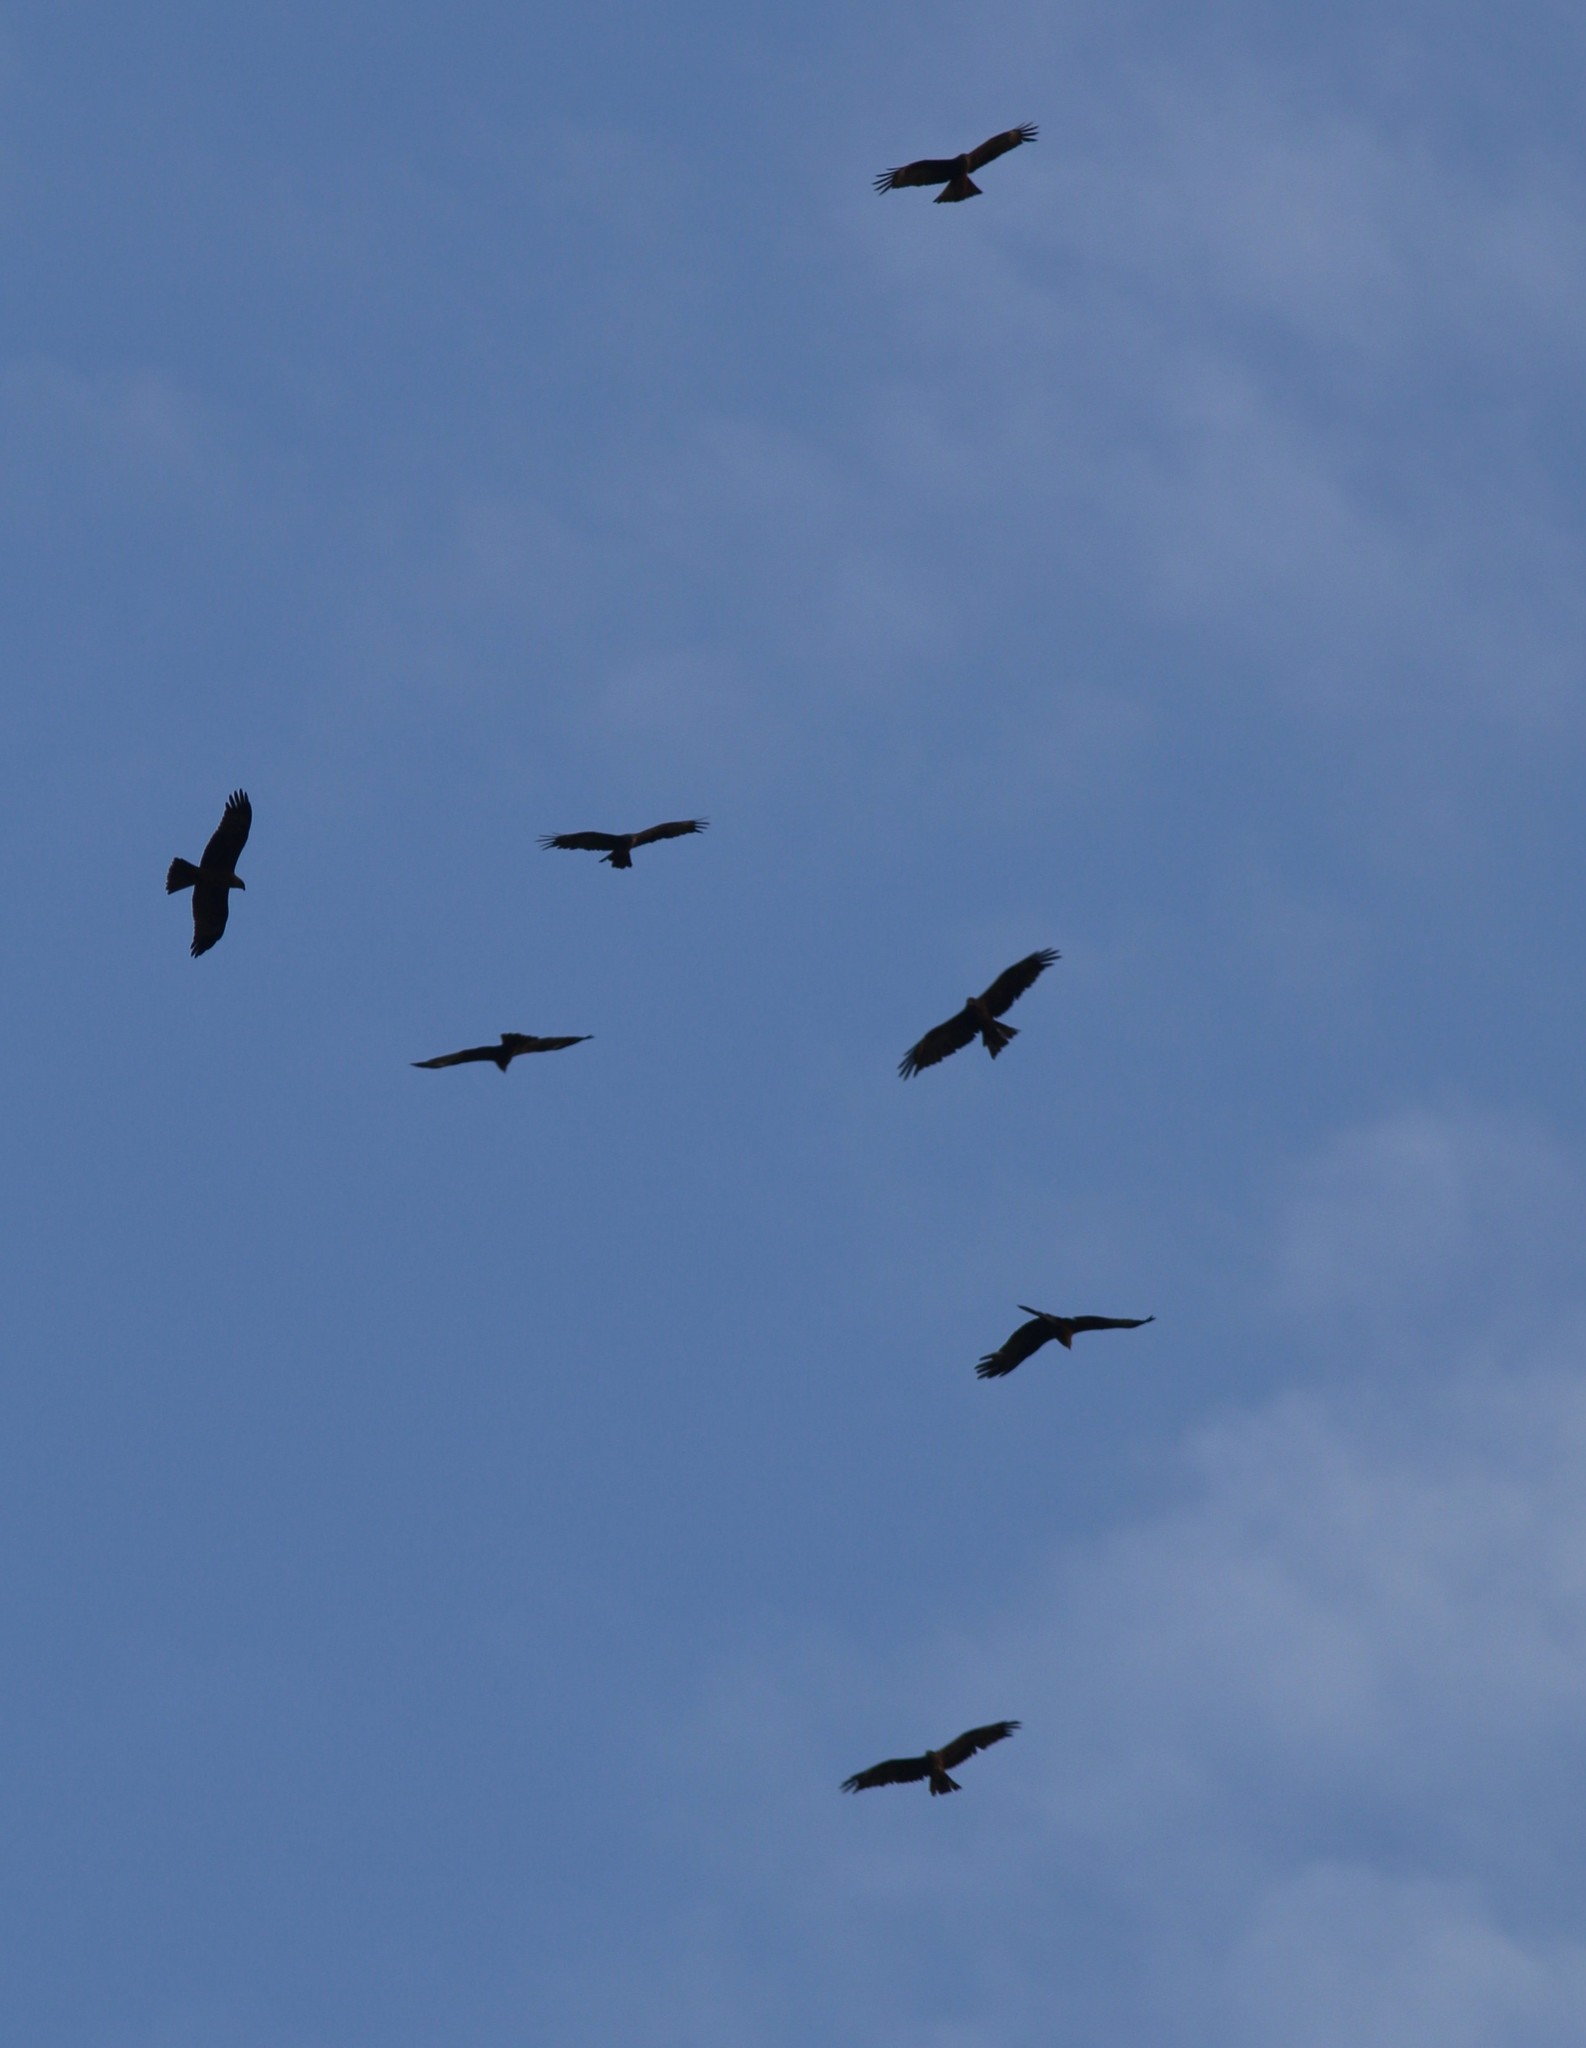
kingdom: Animalia
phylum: Chordata
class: Aves
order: Accipitriformes
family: Accipitridae
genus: Milvus
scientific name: Milvus migrans
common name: Black kite
